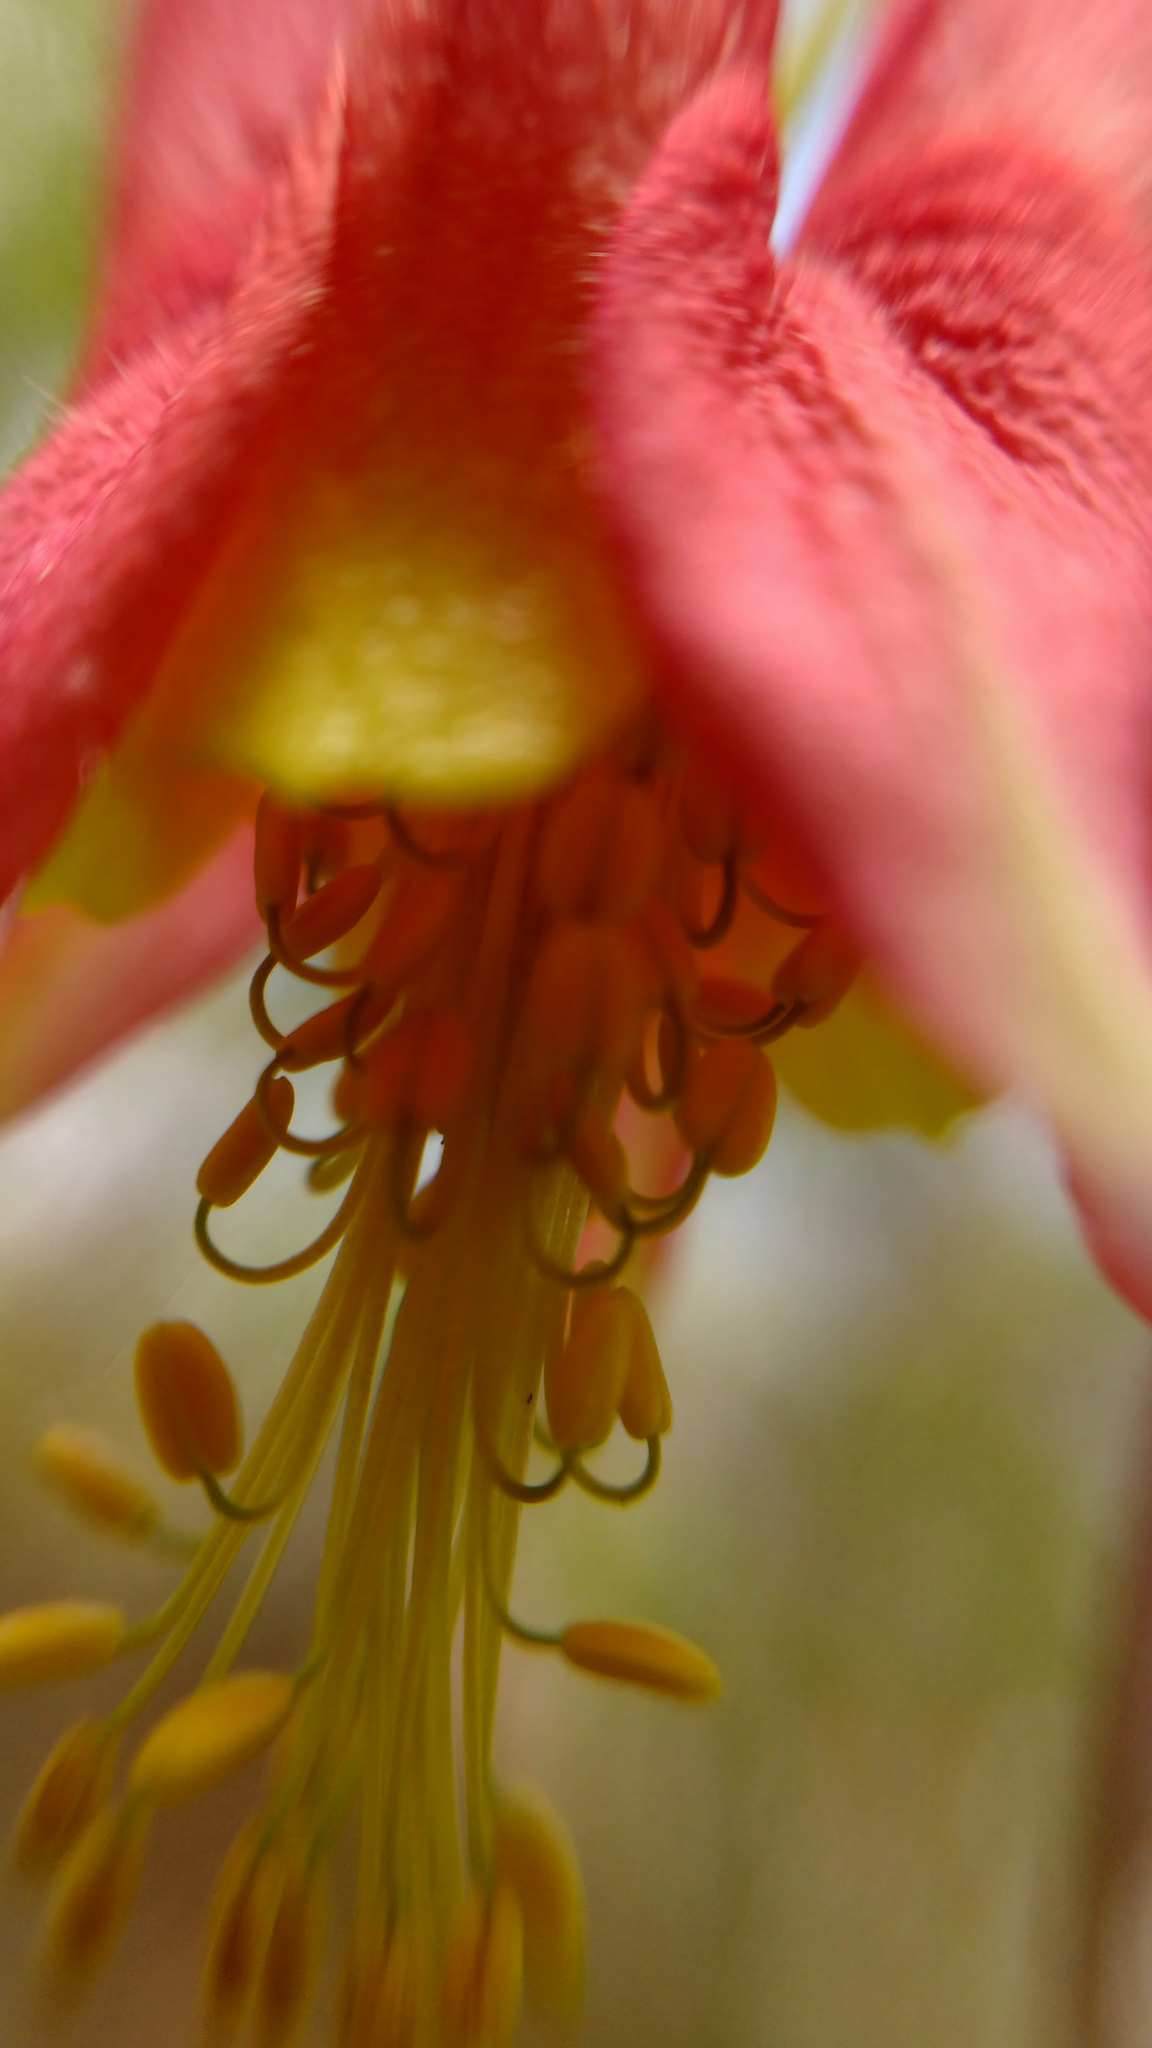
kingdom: Plantae
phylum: Tracheophyta
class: Magnoliopsida
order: Ranunculales
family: Ranunculaceae
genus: Aquilegia
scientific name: Aquilegia canadensis
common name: American columbine
